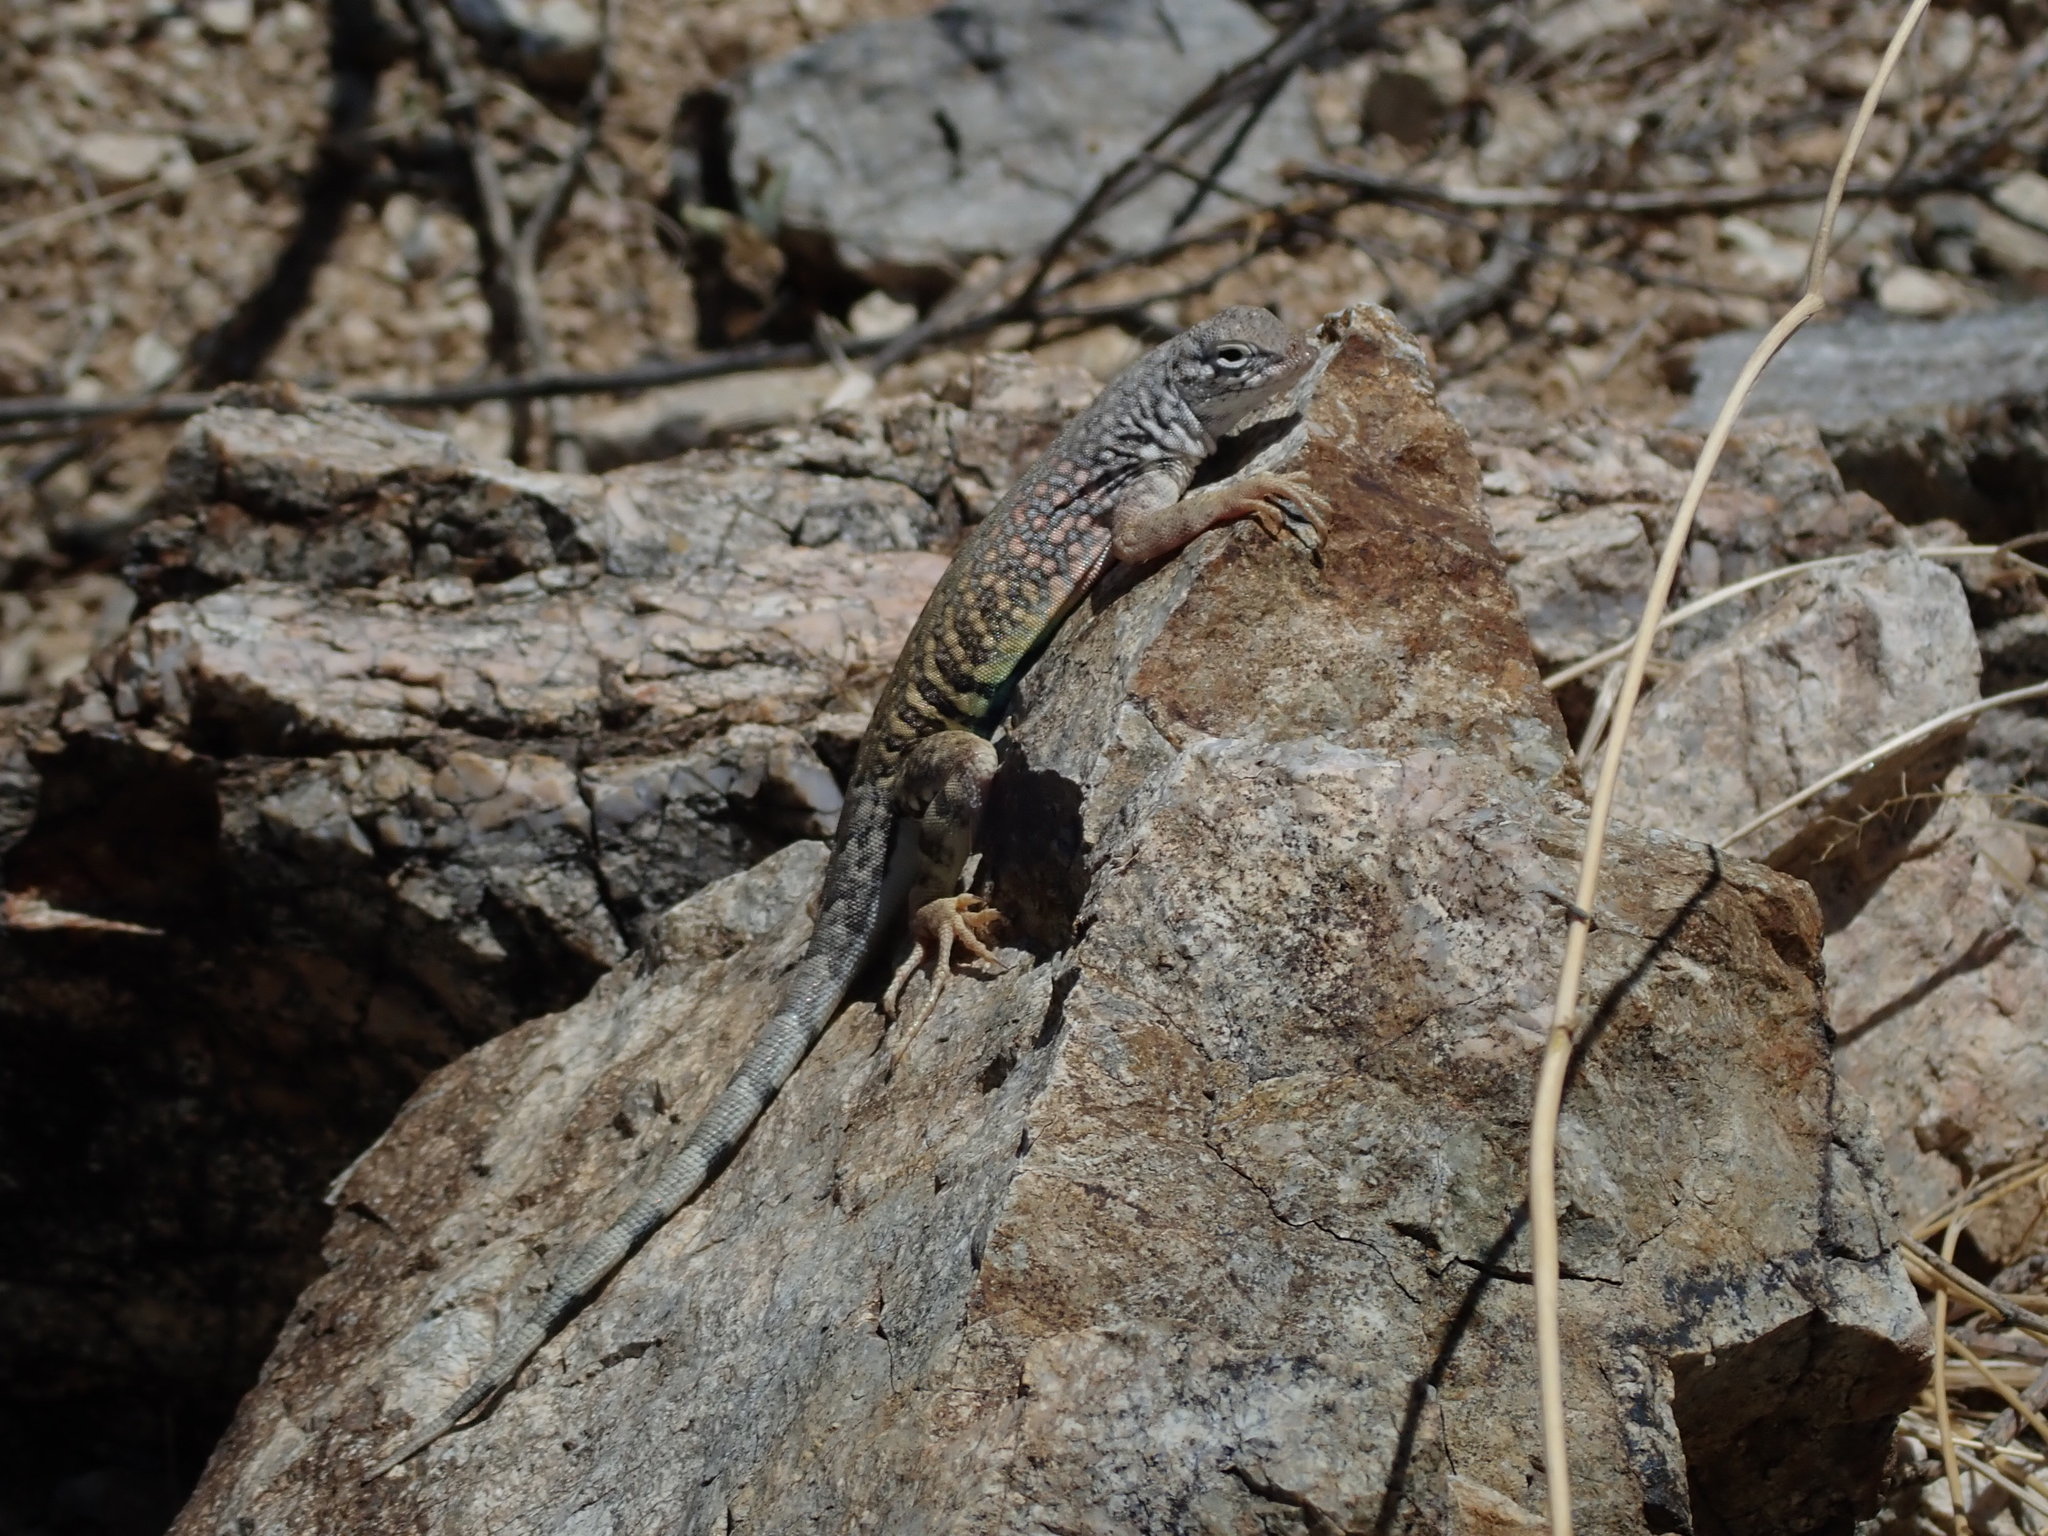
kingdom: Animalia
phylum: Chordata
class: Squamata
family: Phrynosomatidae
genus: Cophosaurus
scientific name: Cophosaurus texanus
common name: Greater earless lizard
